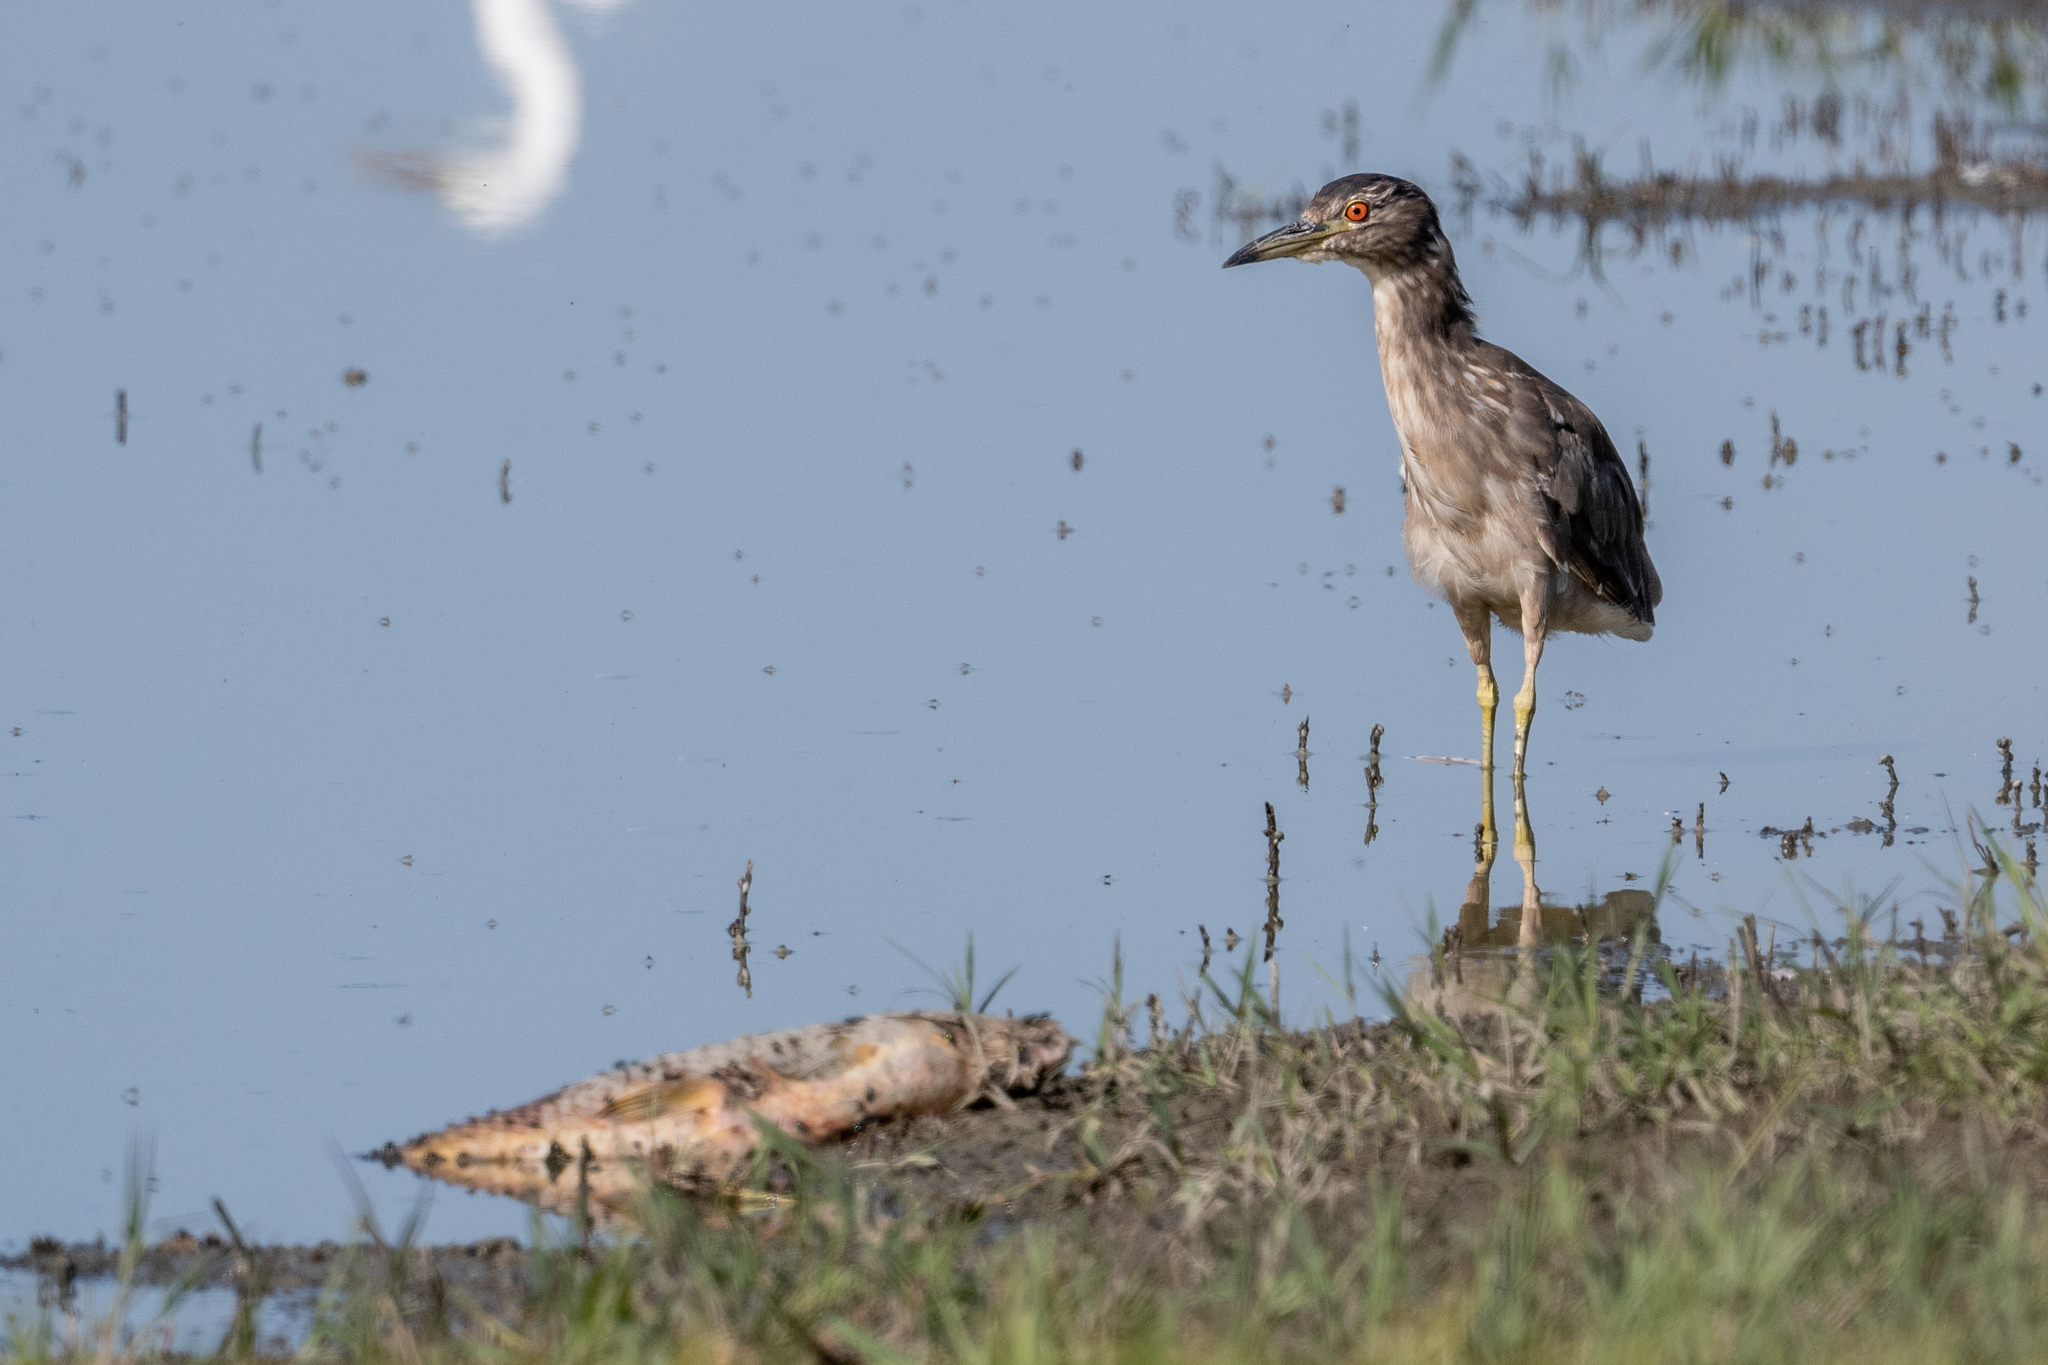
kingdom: Animalia
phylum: Chordata
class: Aves
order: Pelecaniformes
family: Ardeidae
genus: Nycticorax
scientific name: Nycticorax nycticorax
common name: Black-crowned night heron
